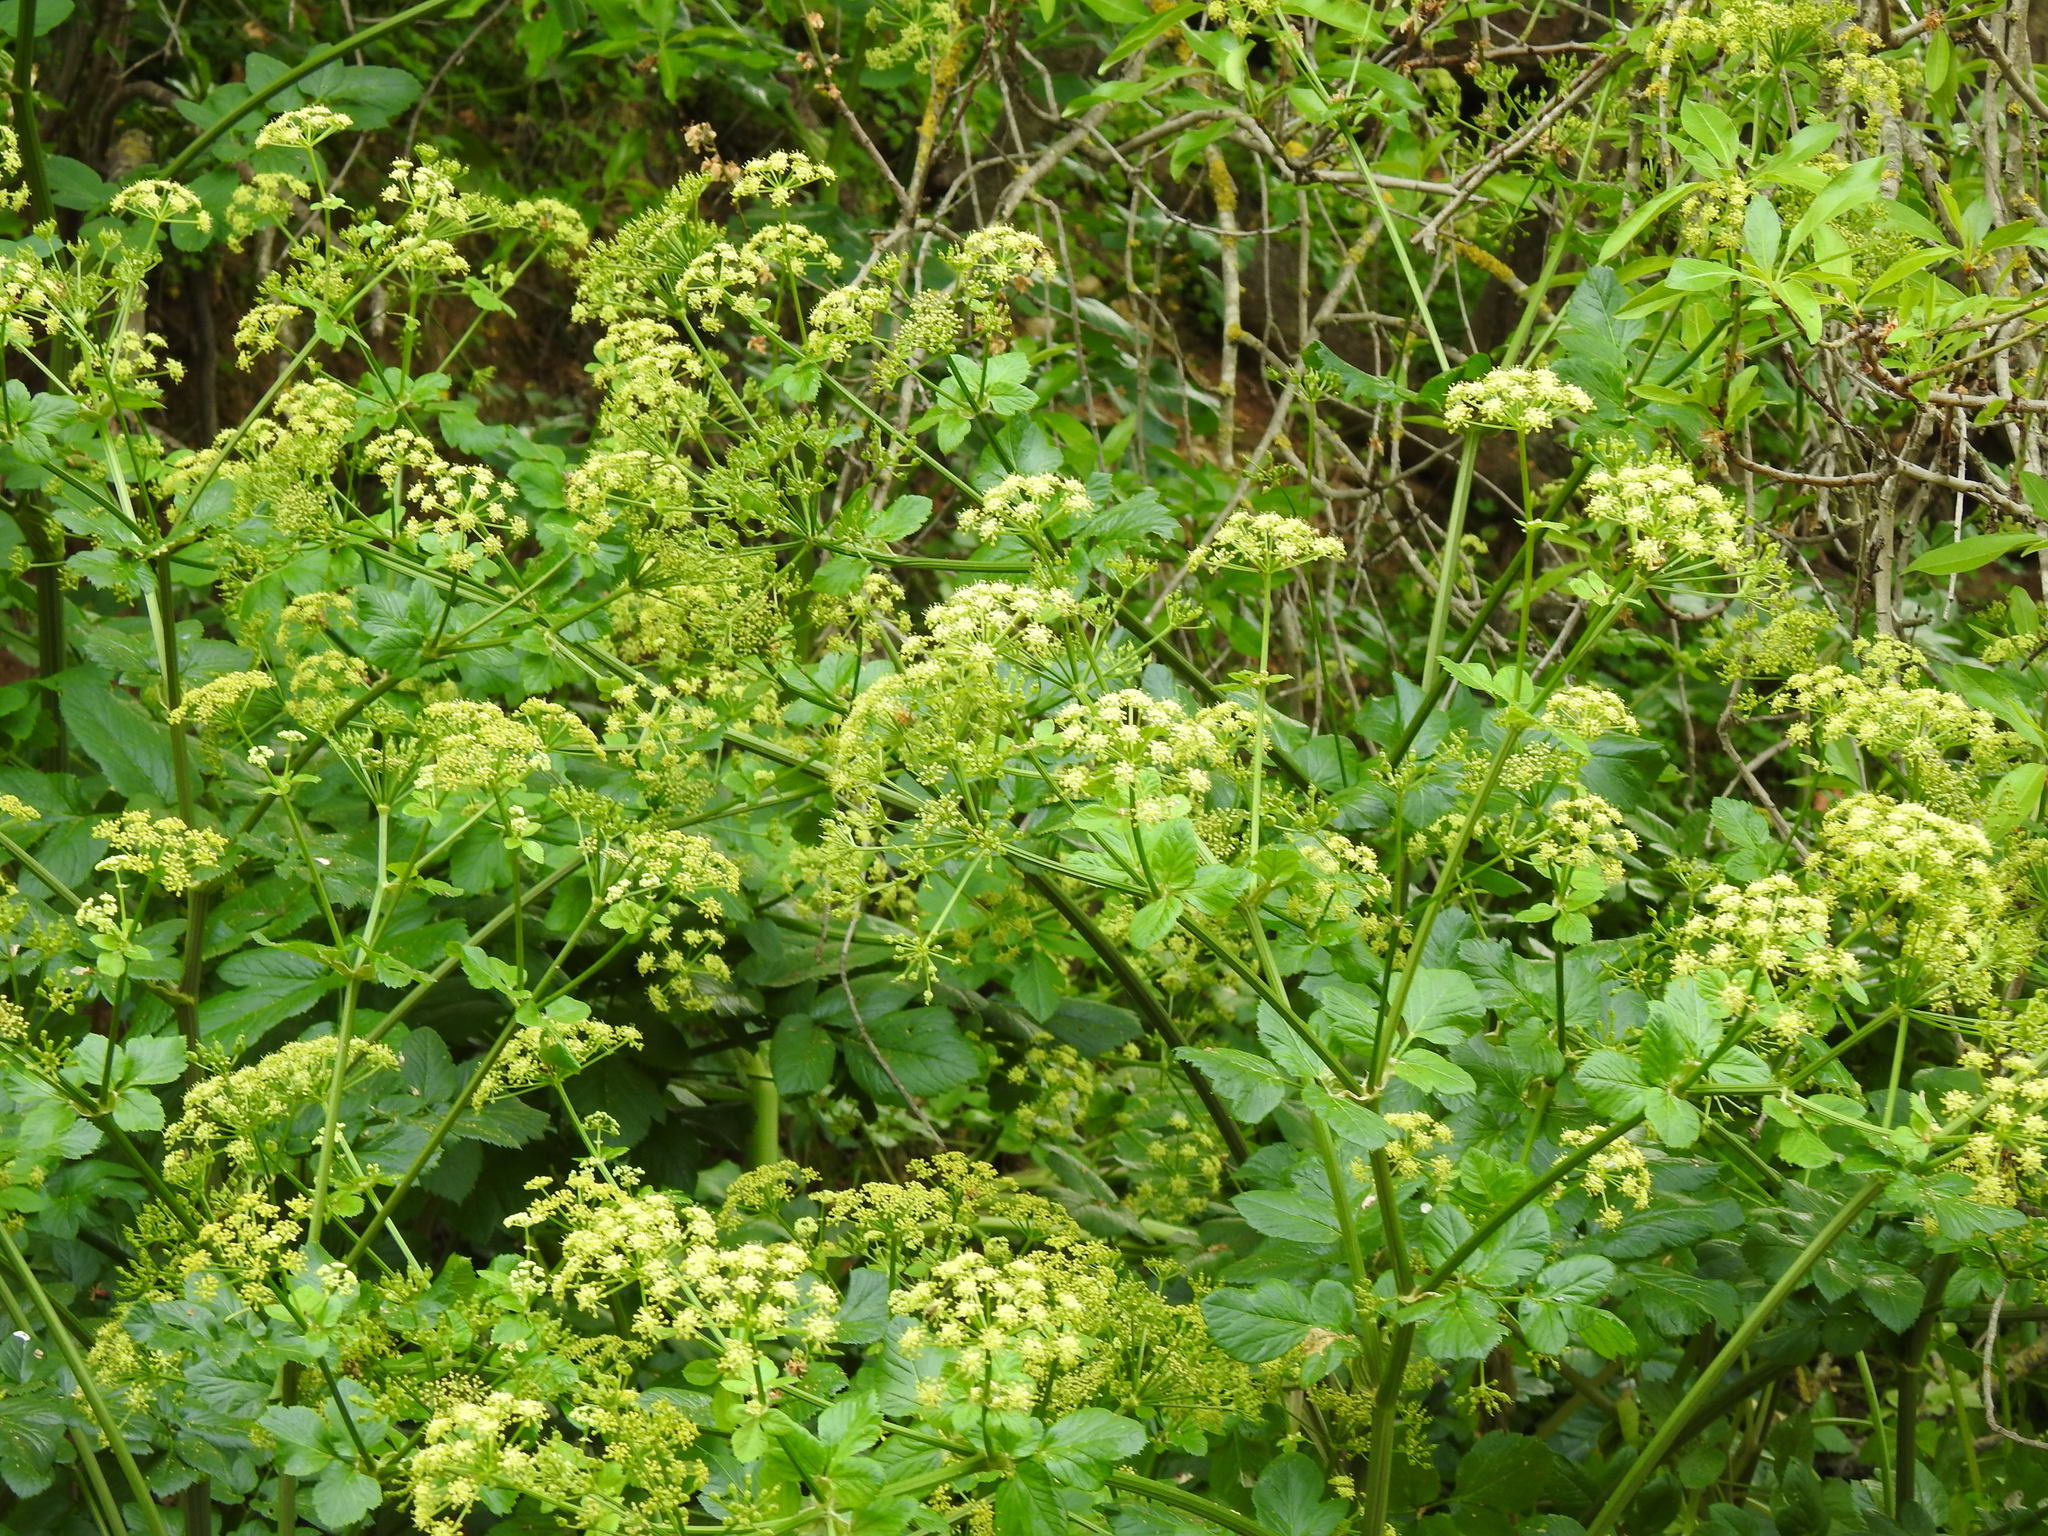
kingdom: Plantae
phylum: Tracheophyta
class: Magnoliopsida
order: Apiales
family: Apiaceae
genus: Smyrnium
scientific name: Smyrnium olusatrum
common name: Alexanders
